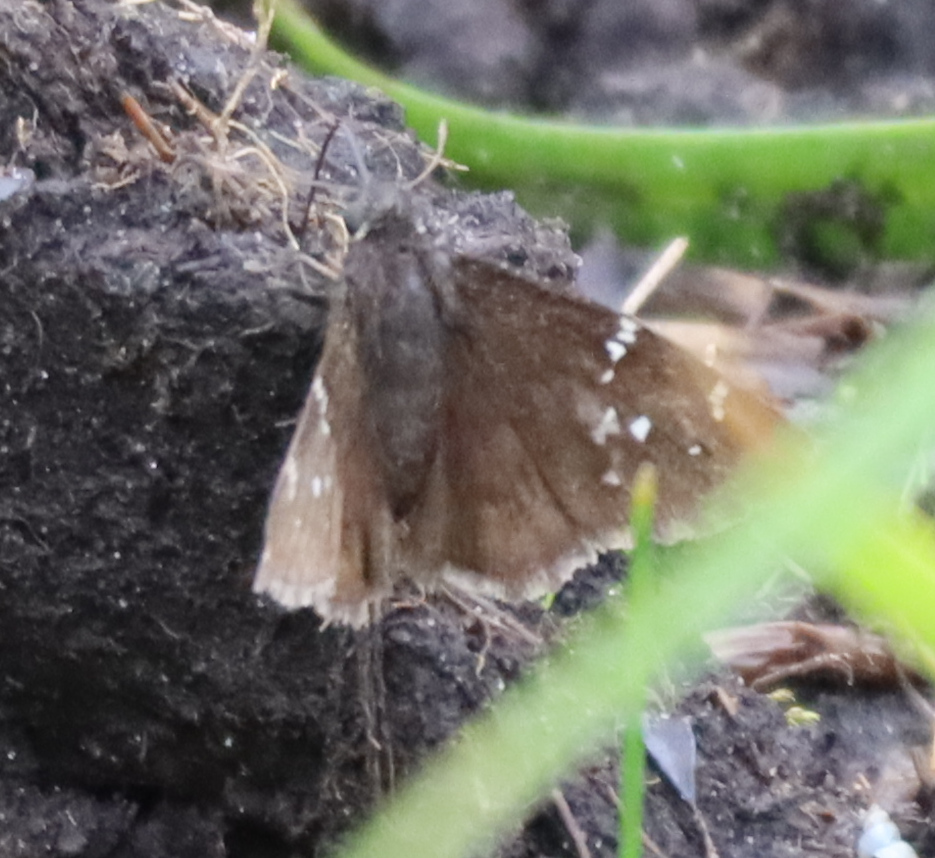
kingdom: Animalia
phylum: Arthropoda
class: Insecta
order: Lepidoptera
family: Hesperiidae
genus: Thorybes
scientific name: Thorybes pylades
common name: Northern cloudywing
